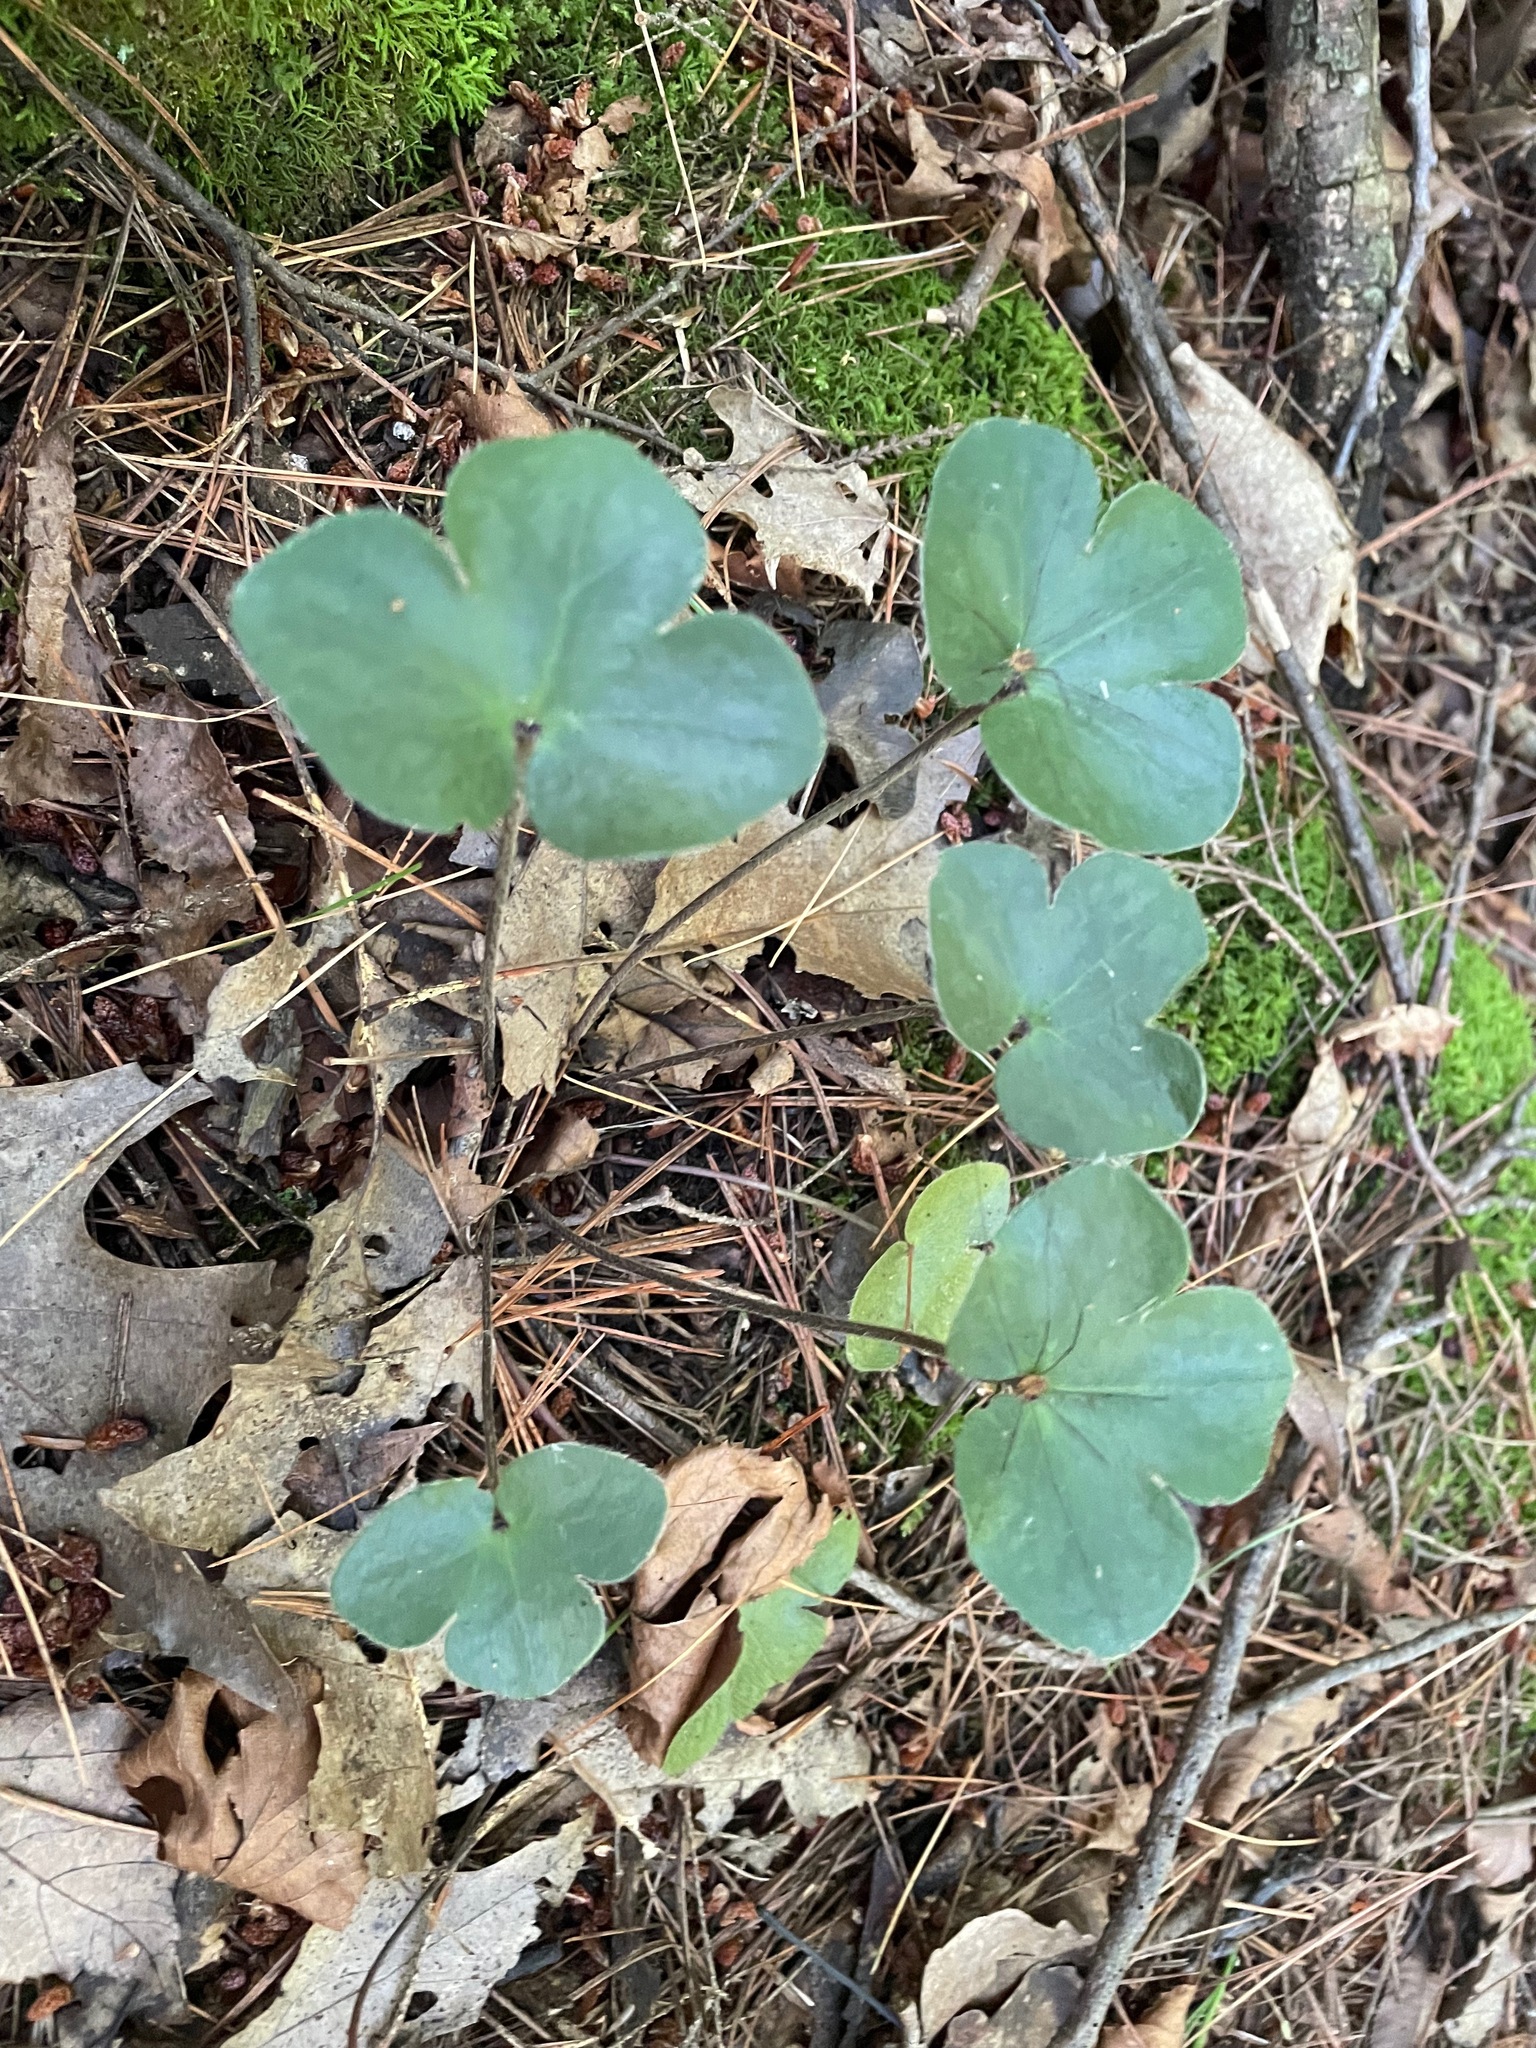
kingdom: Plantae
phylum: Tracheophyta
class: Magnoliopsida
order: Ranunculales
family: Ranunculaceae
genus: Hepatica
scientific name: Hepatica americana
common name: American hepatica
